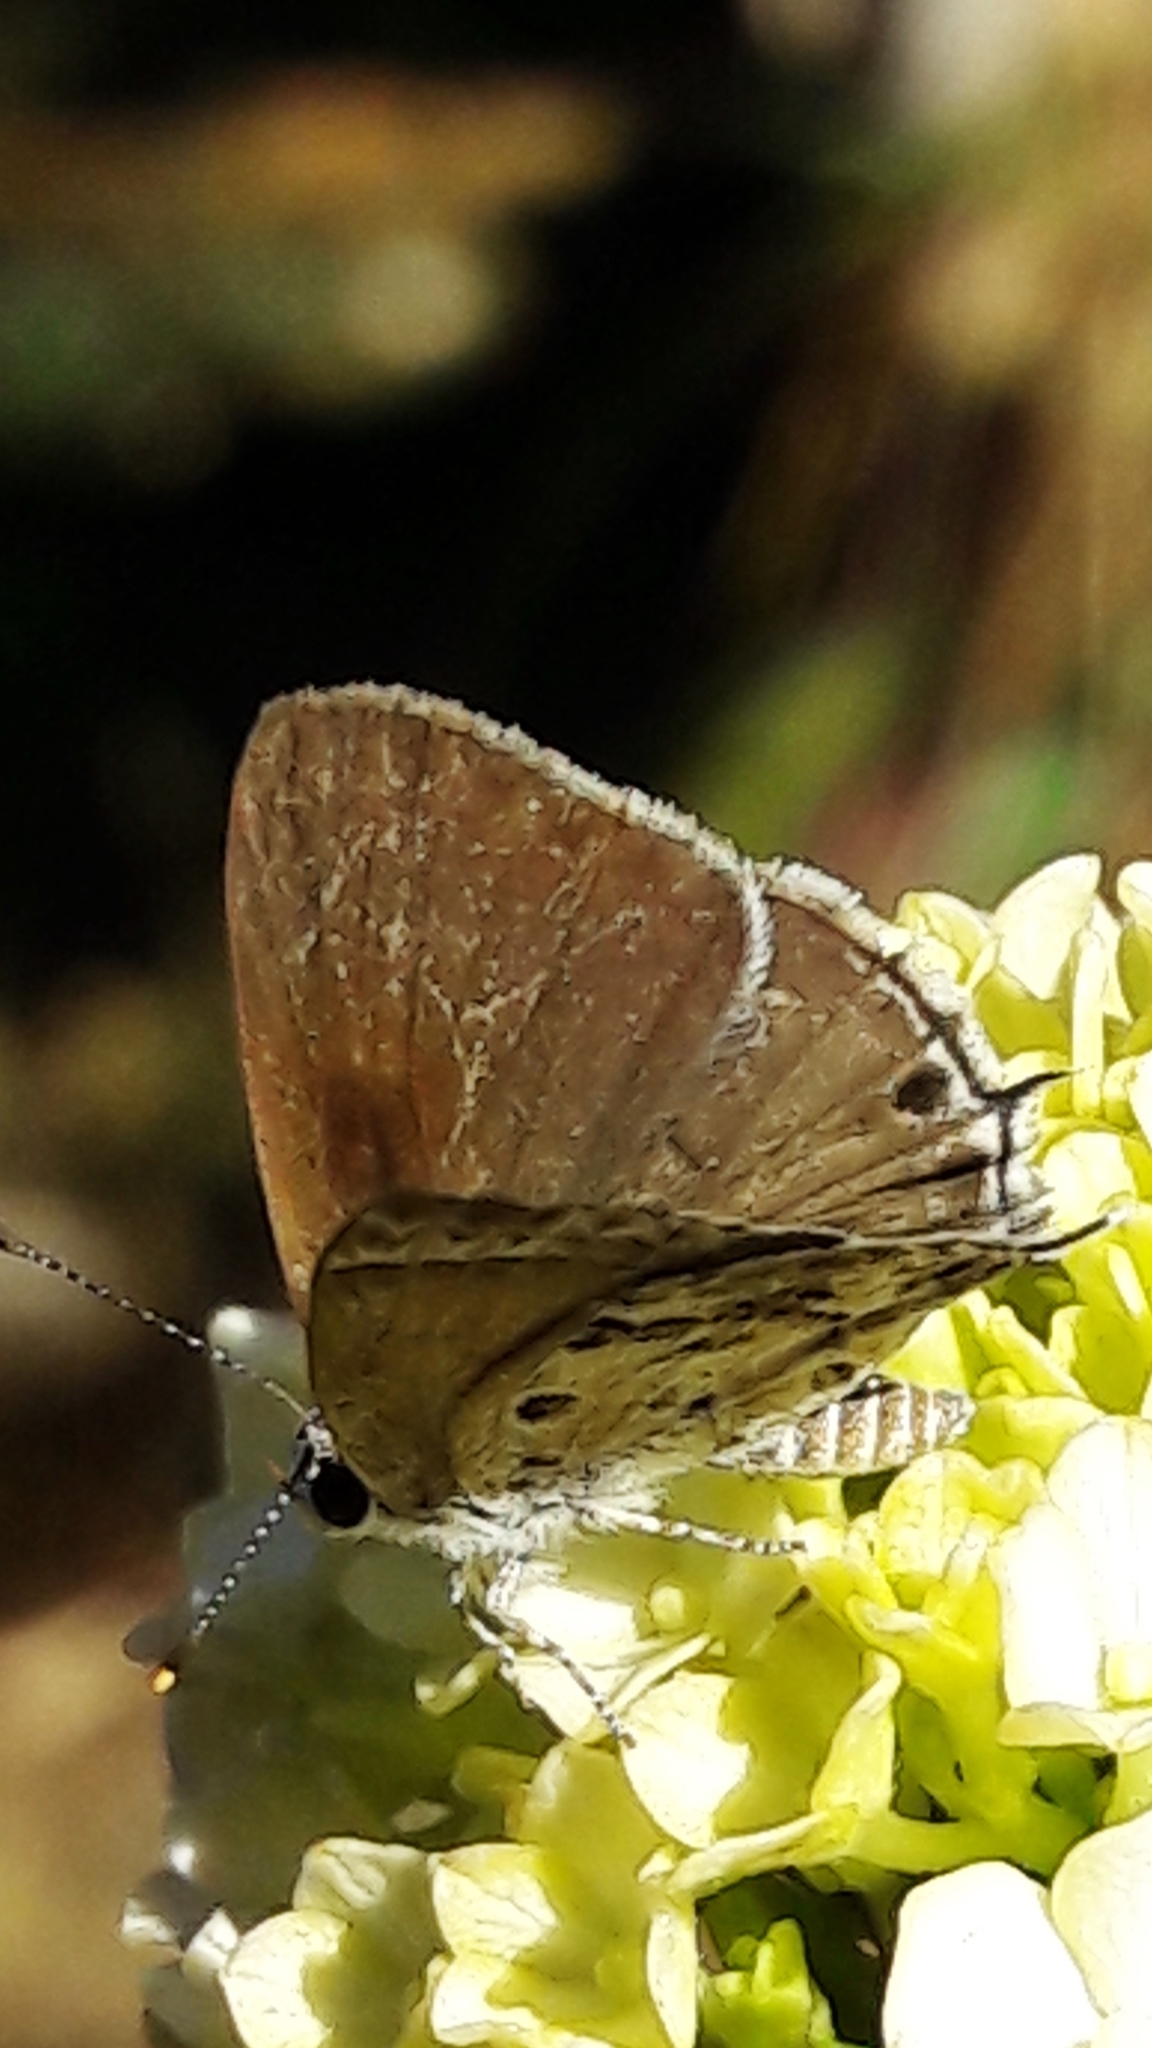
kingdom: Animalia
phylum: Arthropoda
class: Insecta
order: Lepidoptera
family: Lycaenidae
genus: Strymon
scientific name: Strymon astiocha
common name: Gray-spotted scrub-hairstreak
